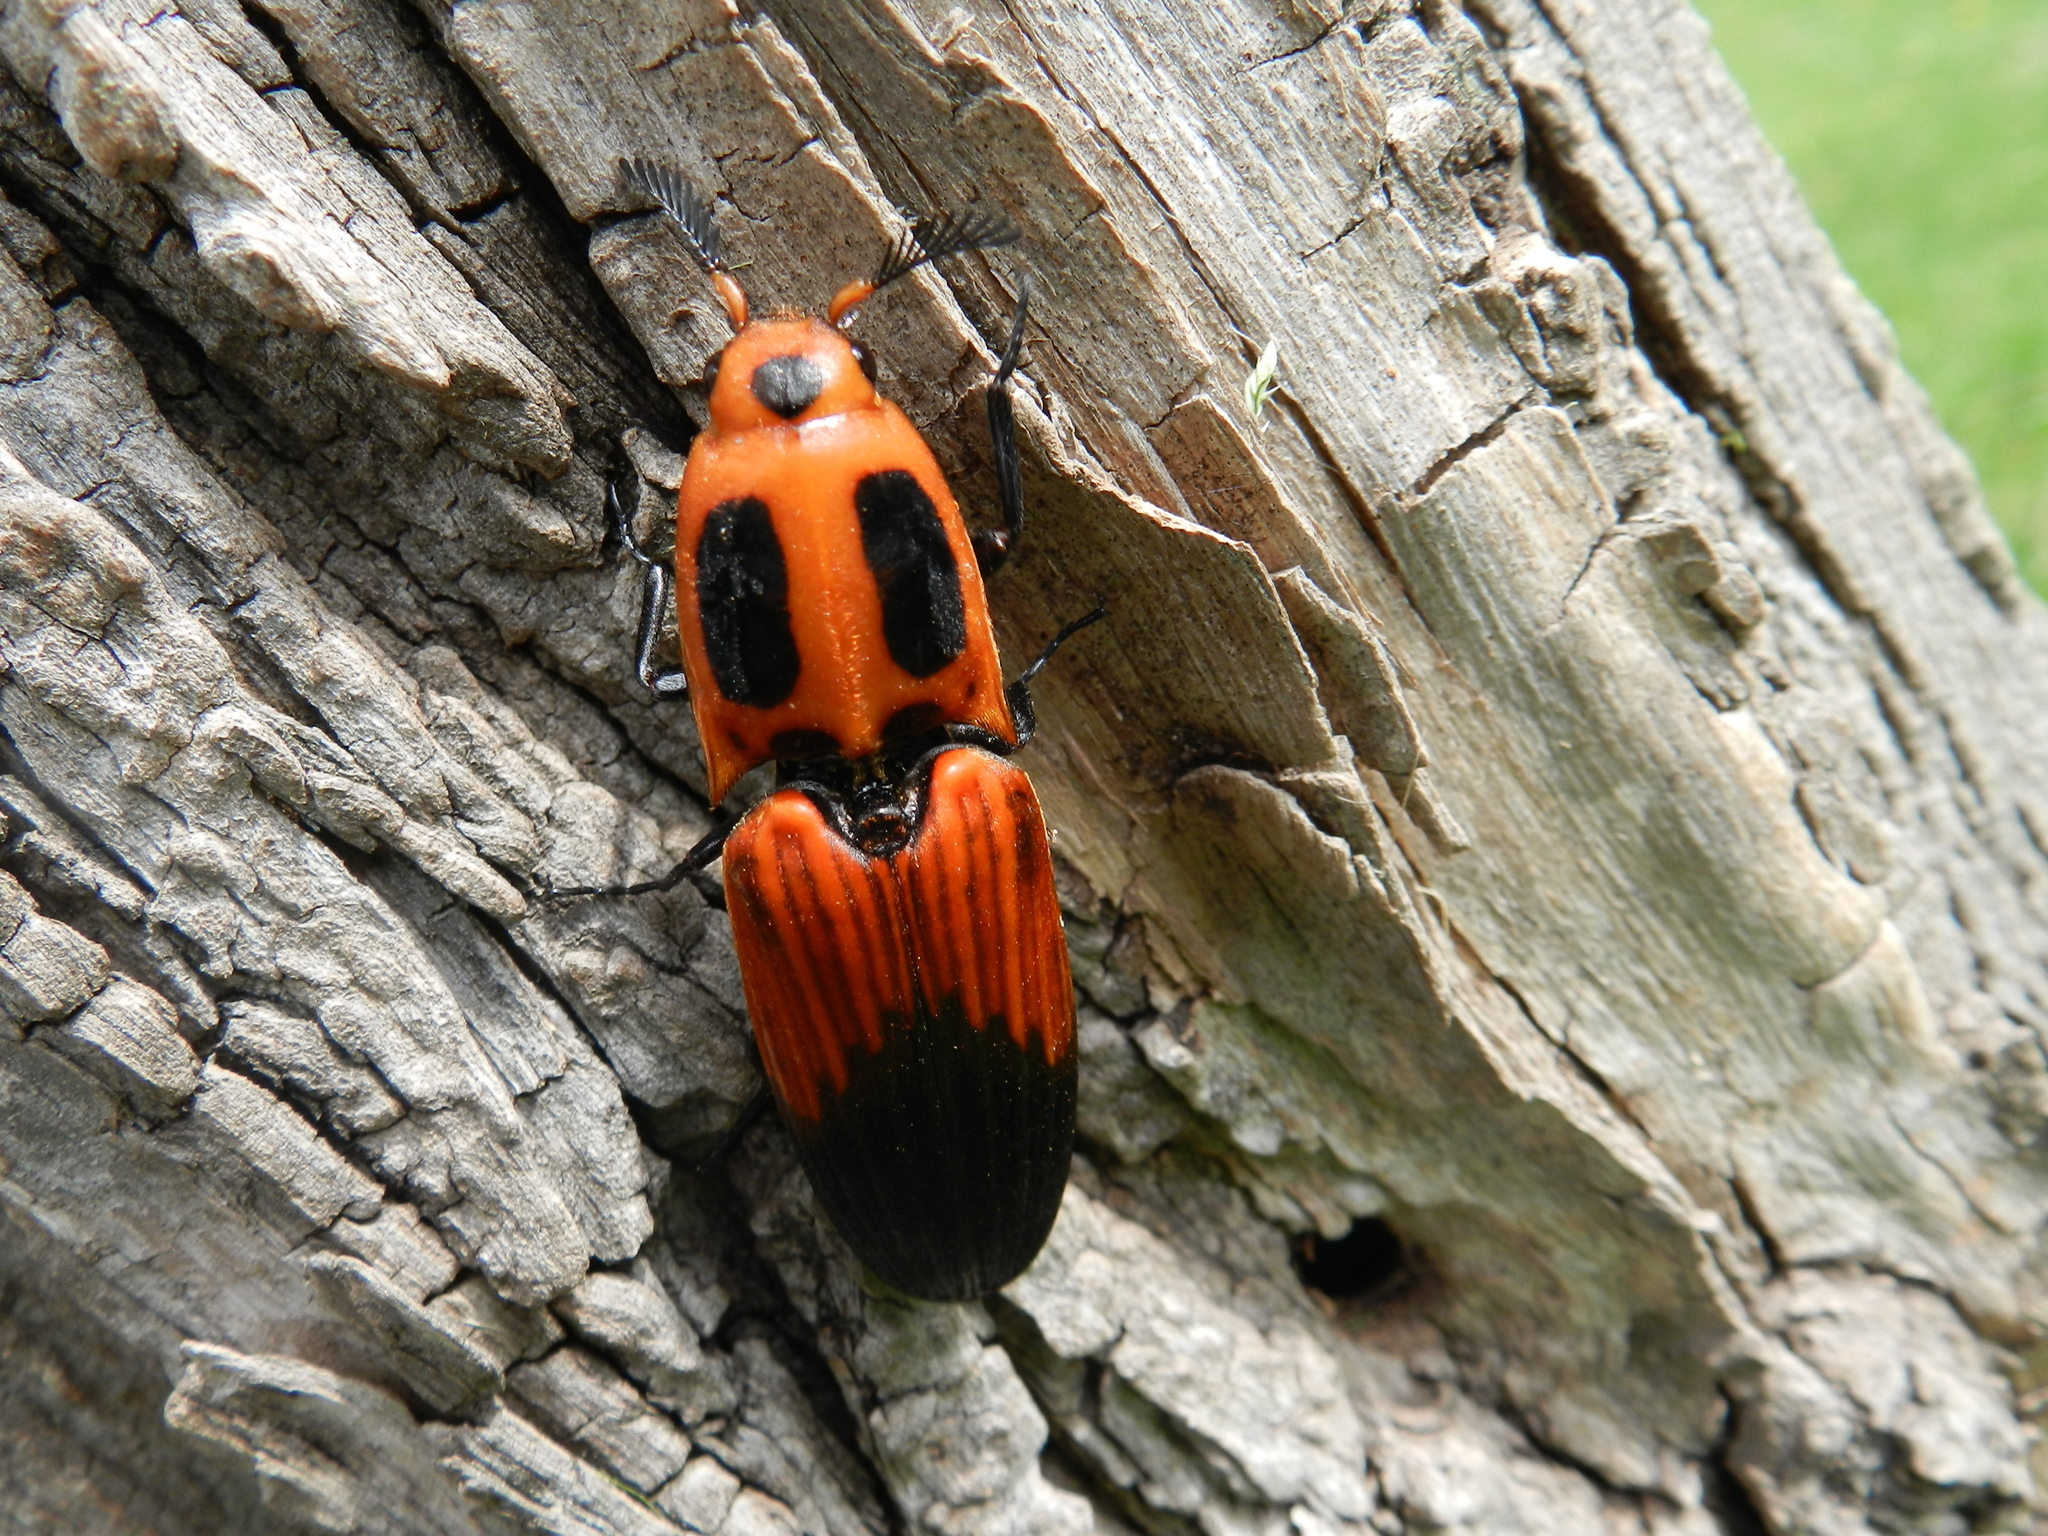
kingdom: Animalia
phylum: Arthropoda
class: Insecta
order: Coleoptera
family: Elateridae
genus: Hemirhipus
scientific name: Hemirhipus
